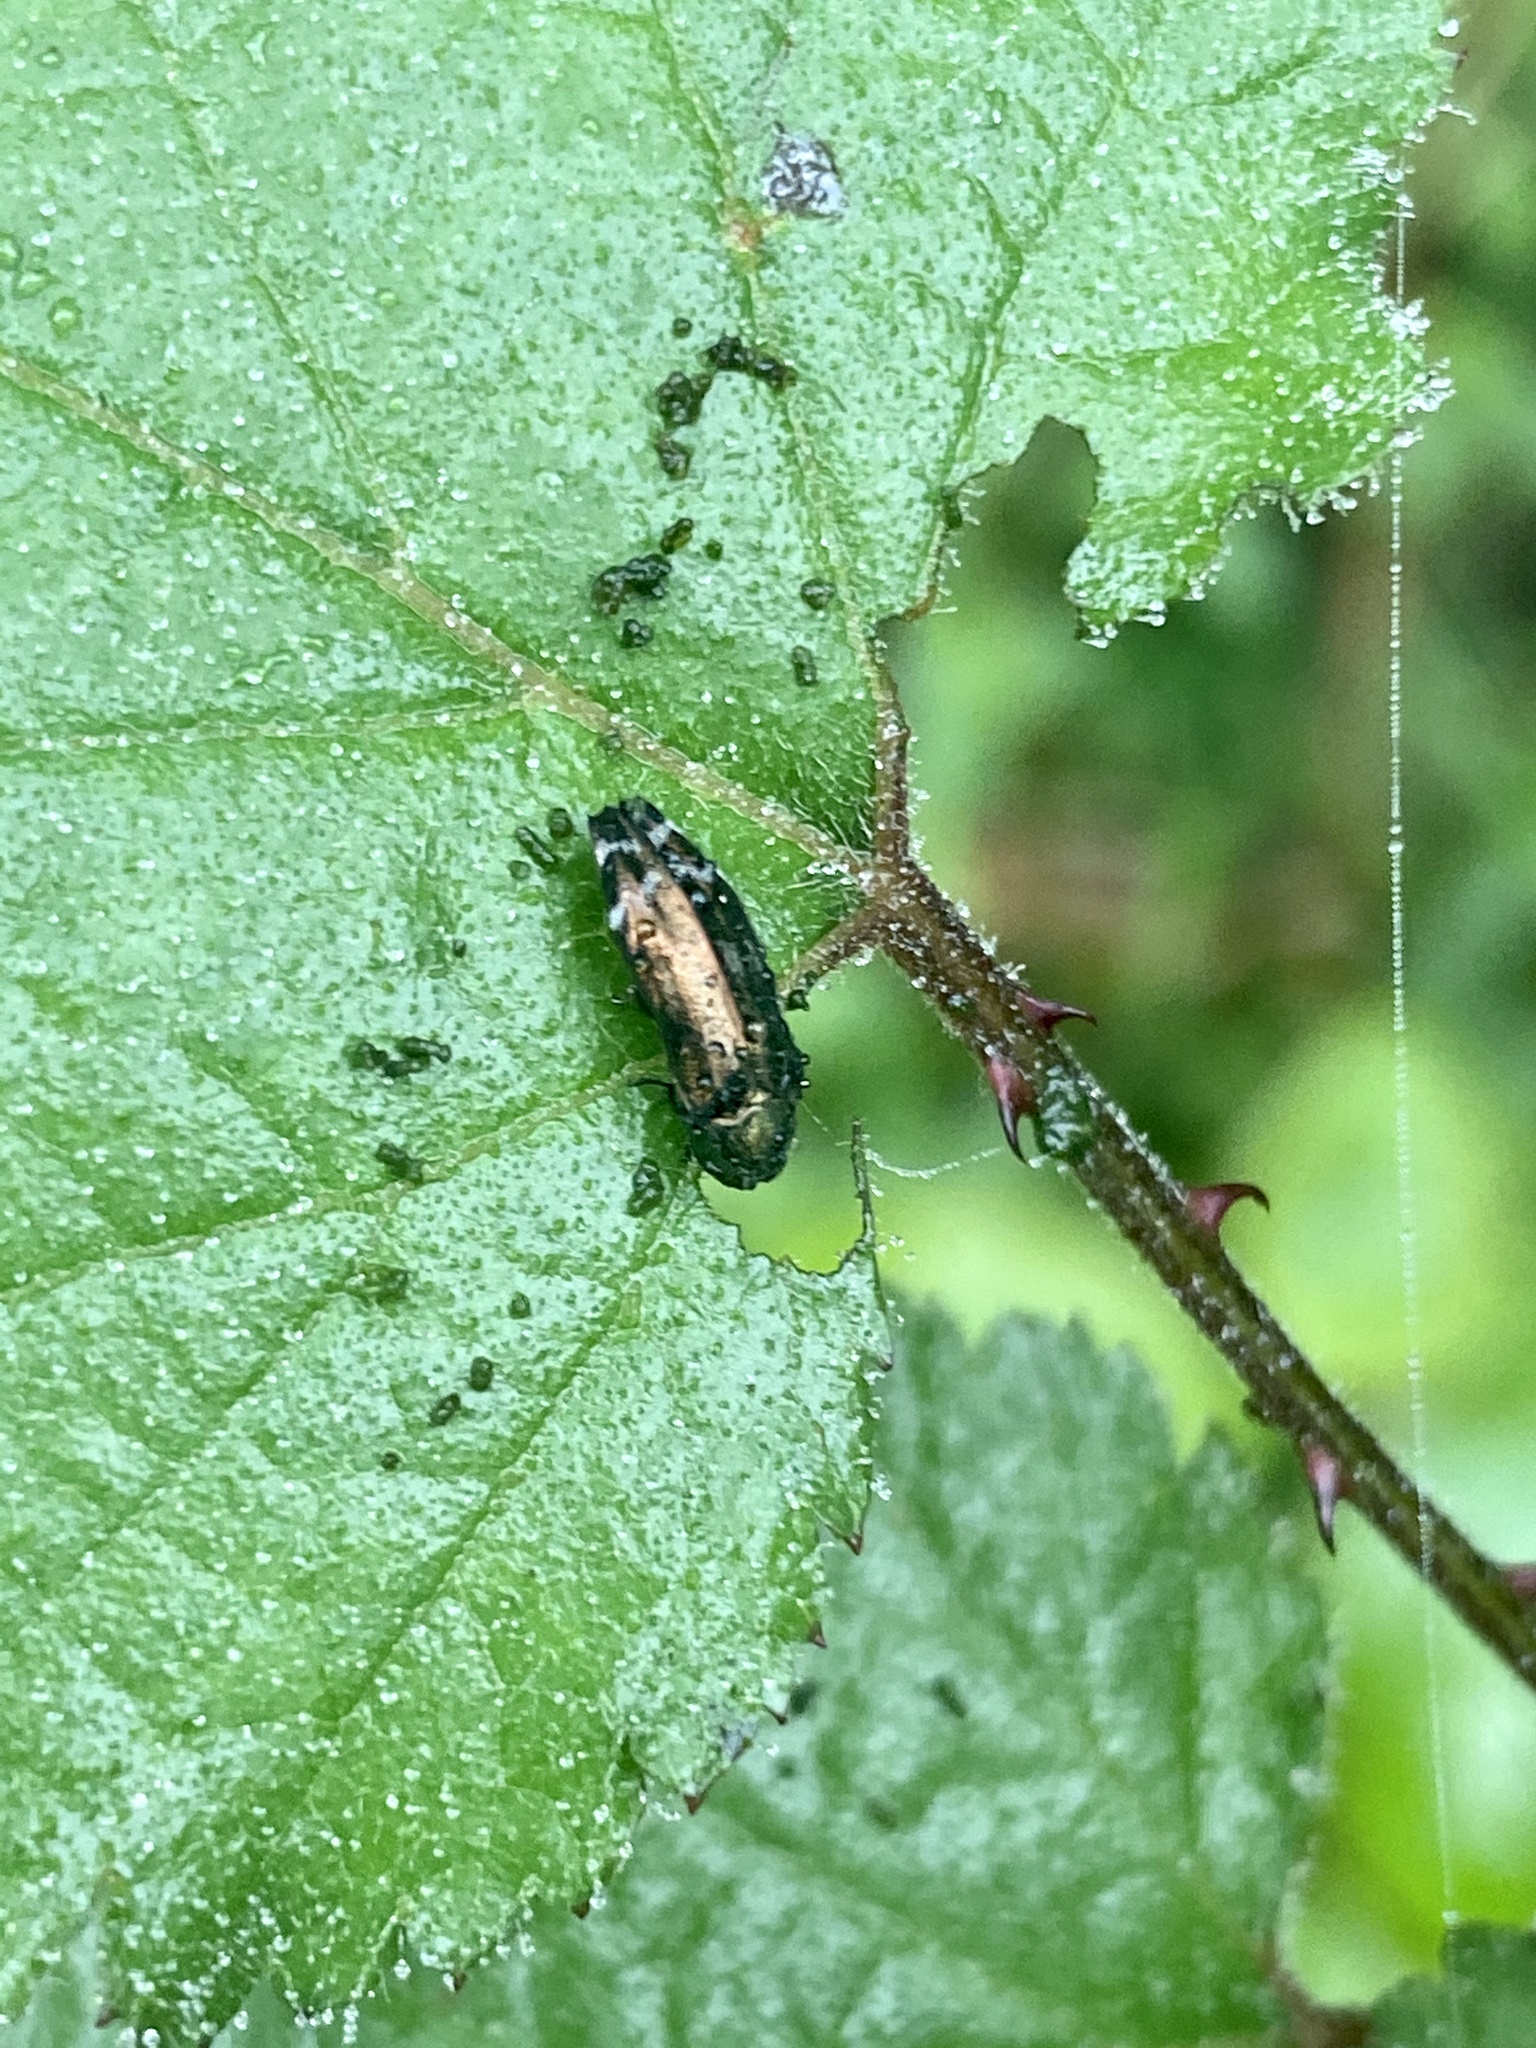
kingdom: Animalia
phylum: Arthropoda
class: Insecta
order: Coleoptera
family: Buprestidae
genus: Coraebus
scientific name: Coraebus quadriundulatus
